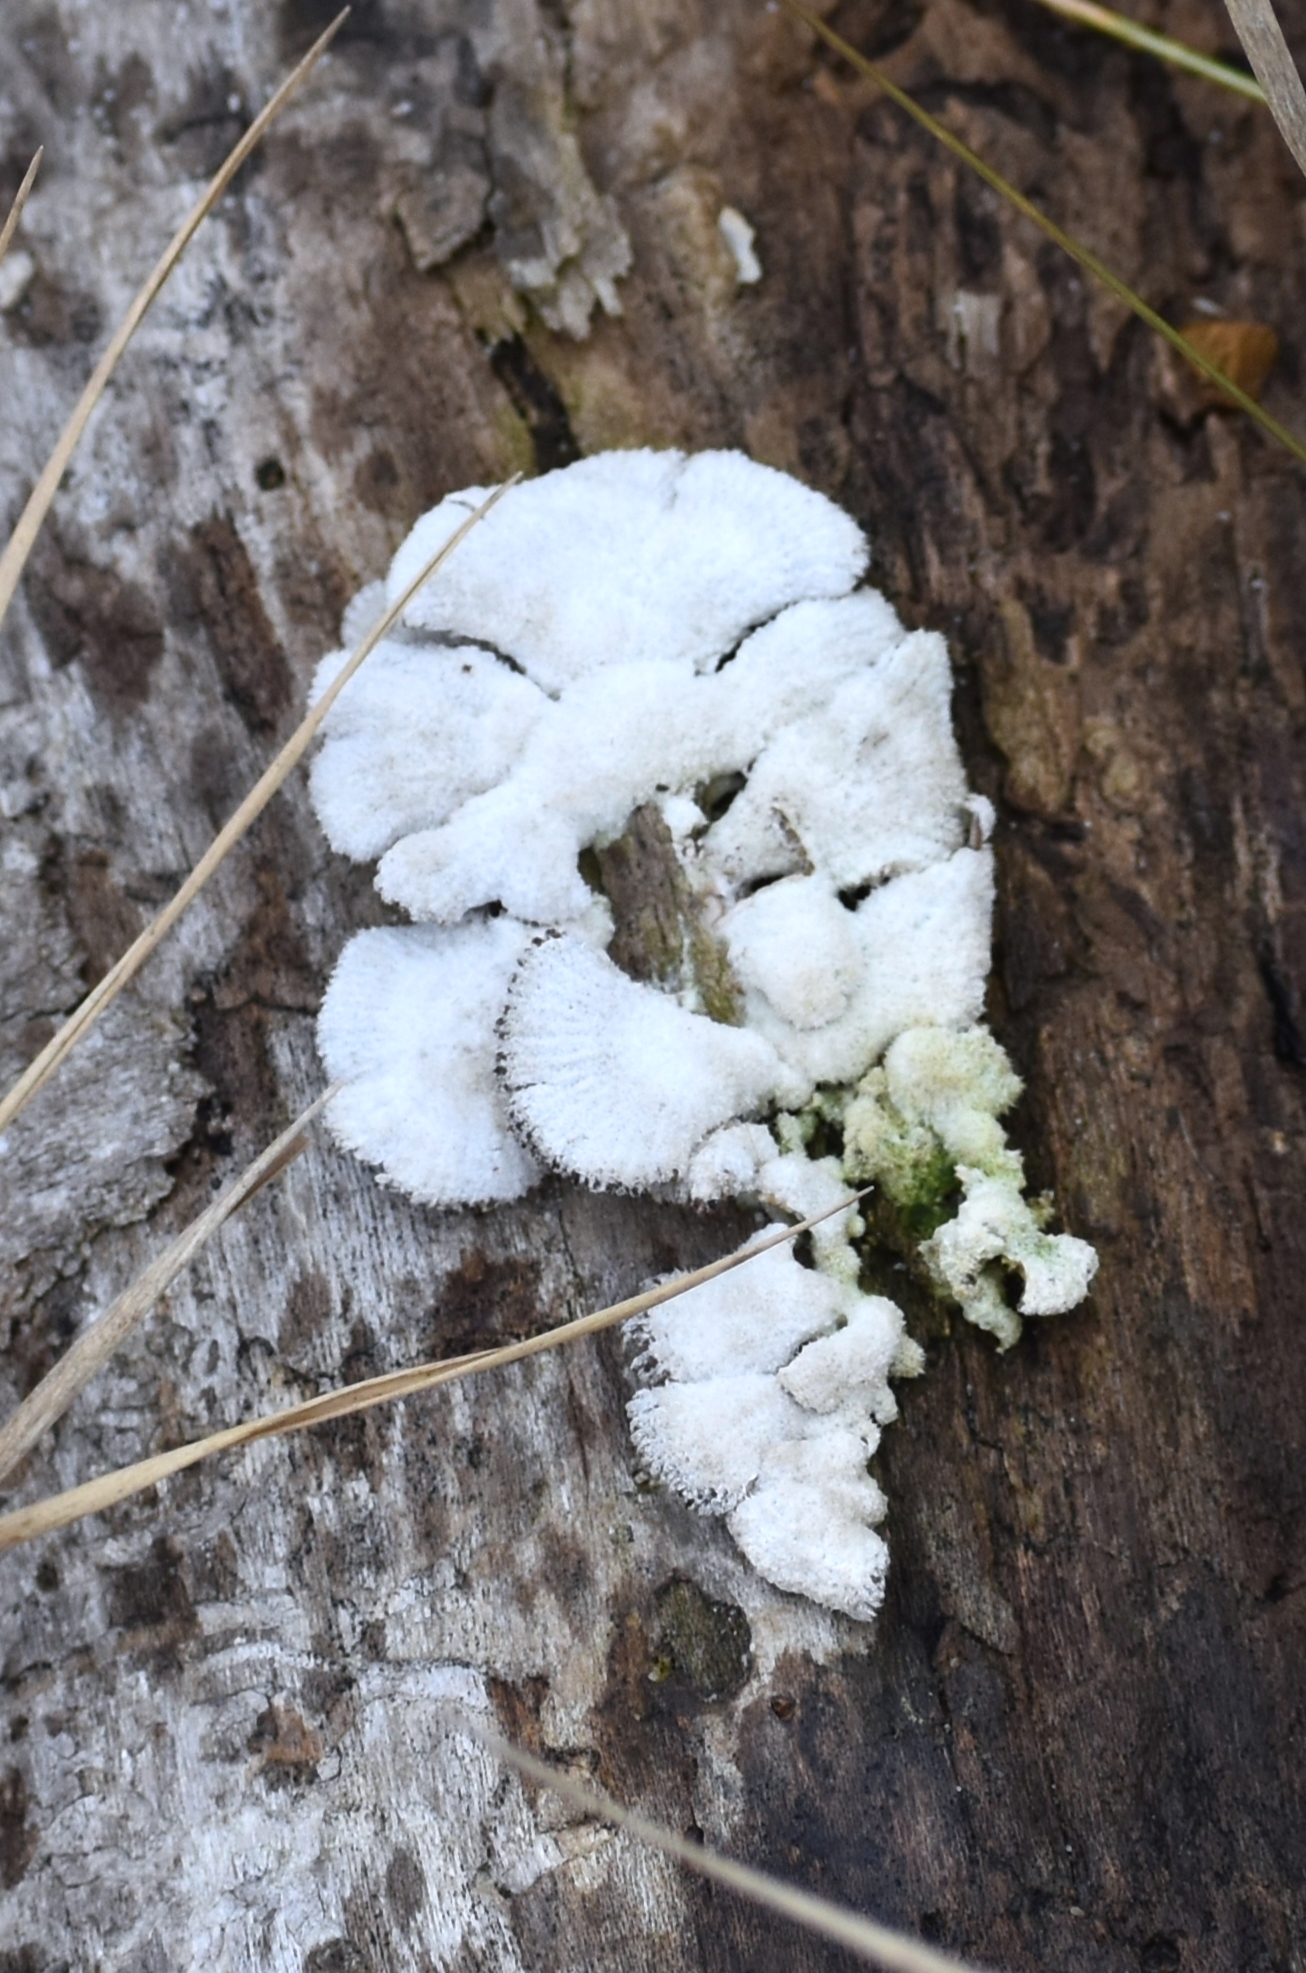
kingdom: Fungi
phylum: Basidiomycota
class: Agaricomycetes
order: Agaricales
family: Schizophyllaceae
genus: Schizophyllum
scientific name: Schizophyllum commune
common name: Common porecrust
